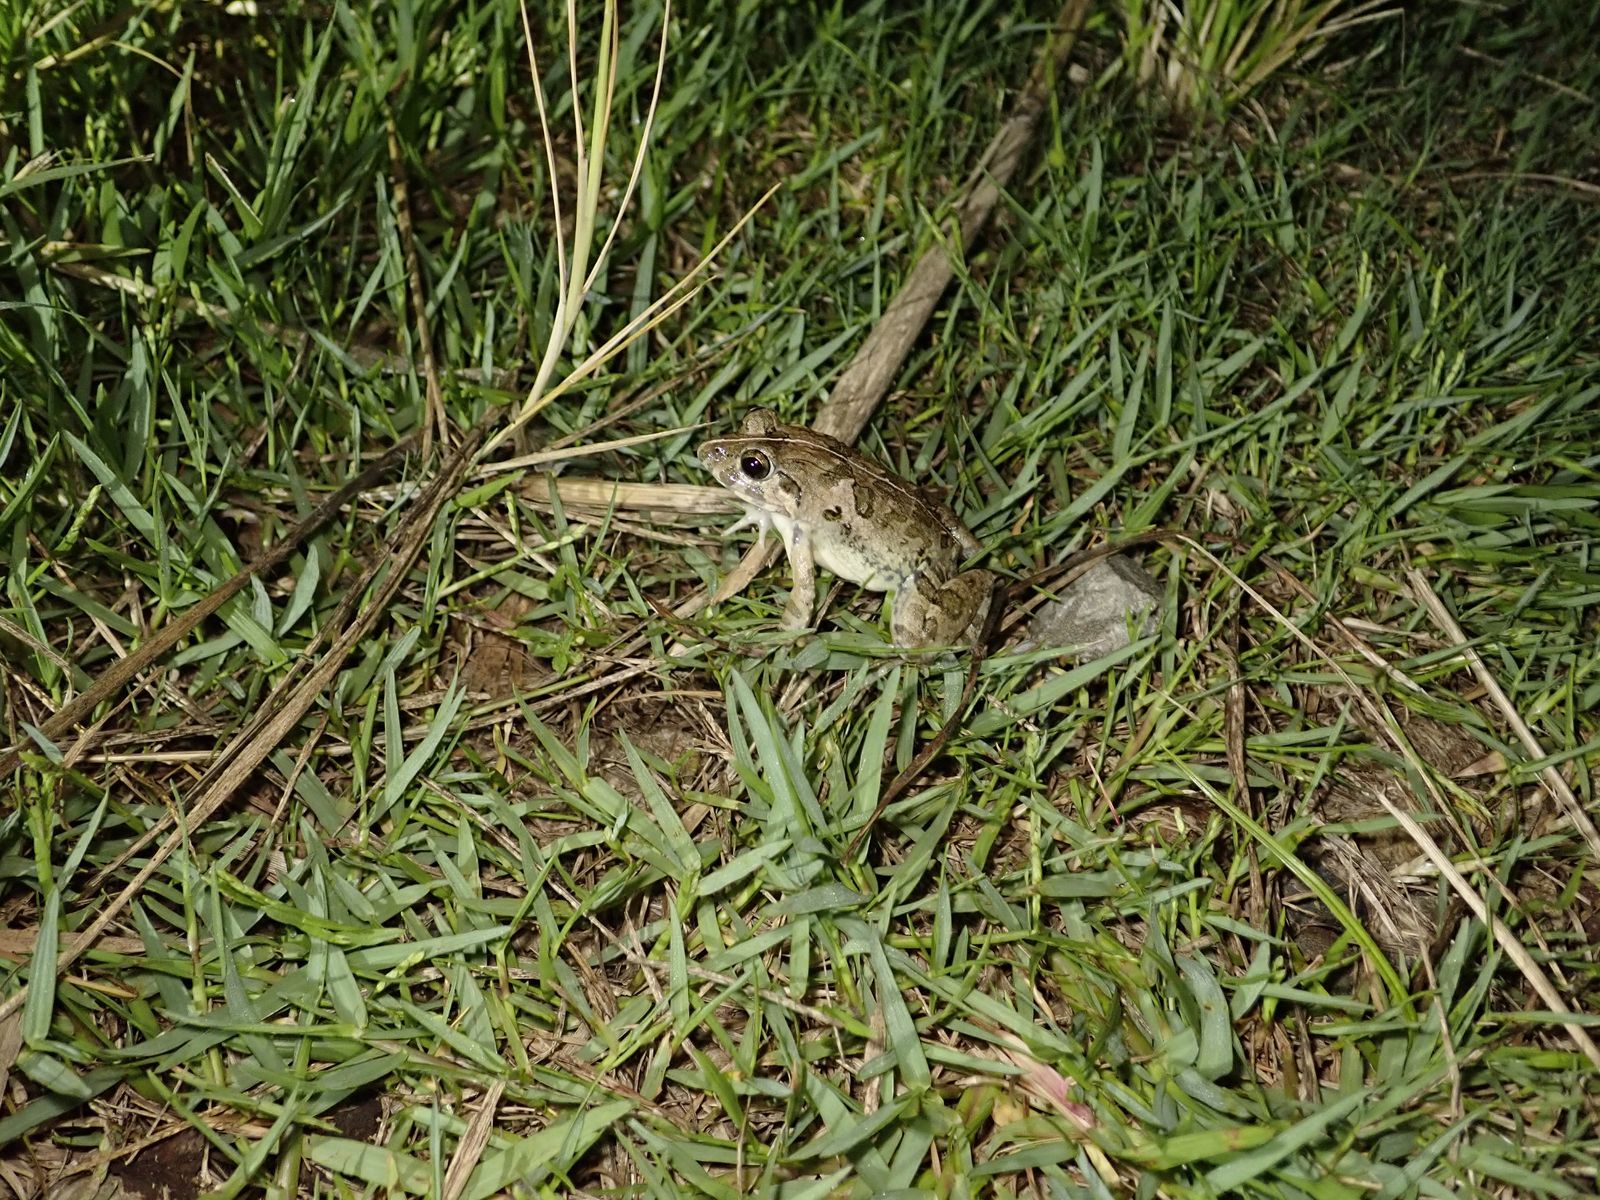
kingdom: Animalia
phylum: Chordata
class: Amphibia
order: Anura
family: Dicroglossidae
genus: Fejervarya
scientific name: Fejervarya limnocharis
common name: Asian grass frog/common pond frog/field frog/grass frog/indian rice frog
